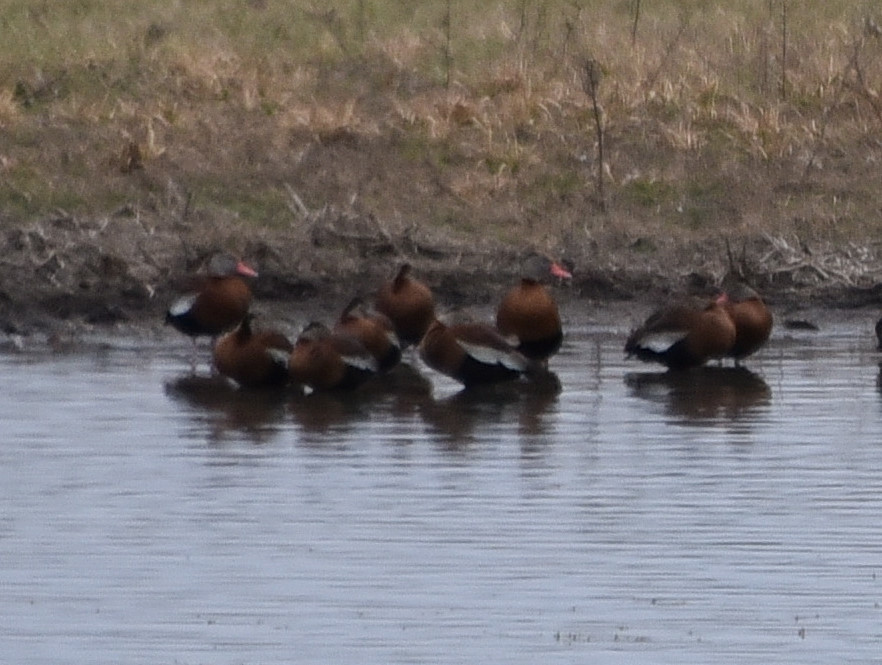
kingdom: Animalia
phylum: Chordata
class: Aves
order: Anseriformes
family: Anatidae
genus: Dendrocygna
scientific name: Dendrocygna autumnalis
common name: Black-bellied whistling duck
